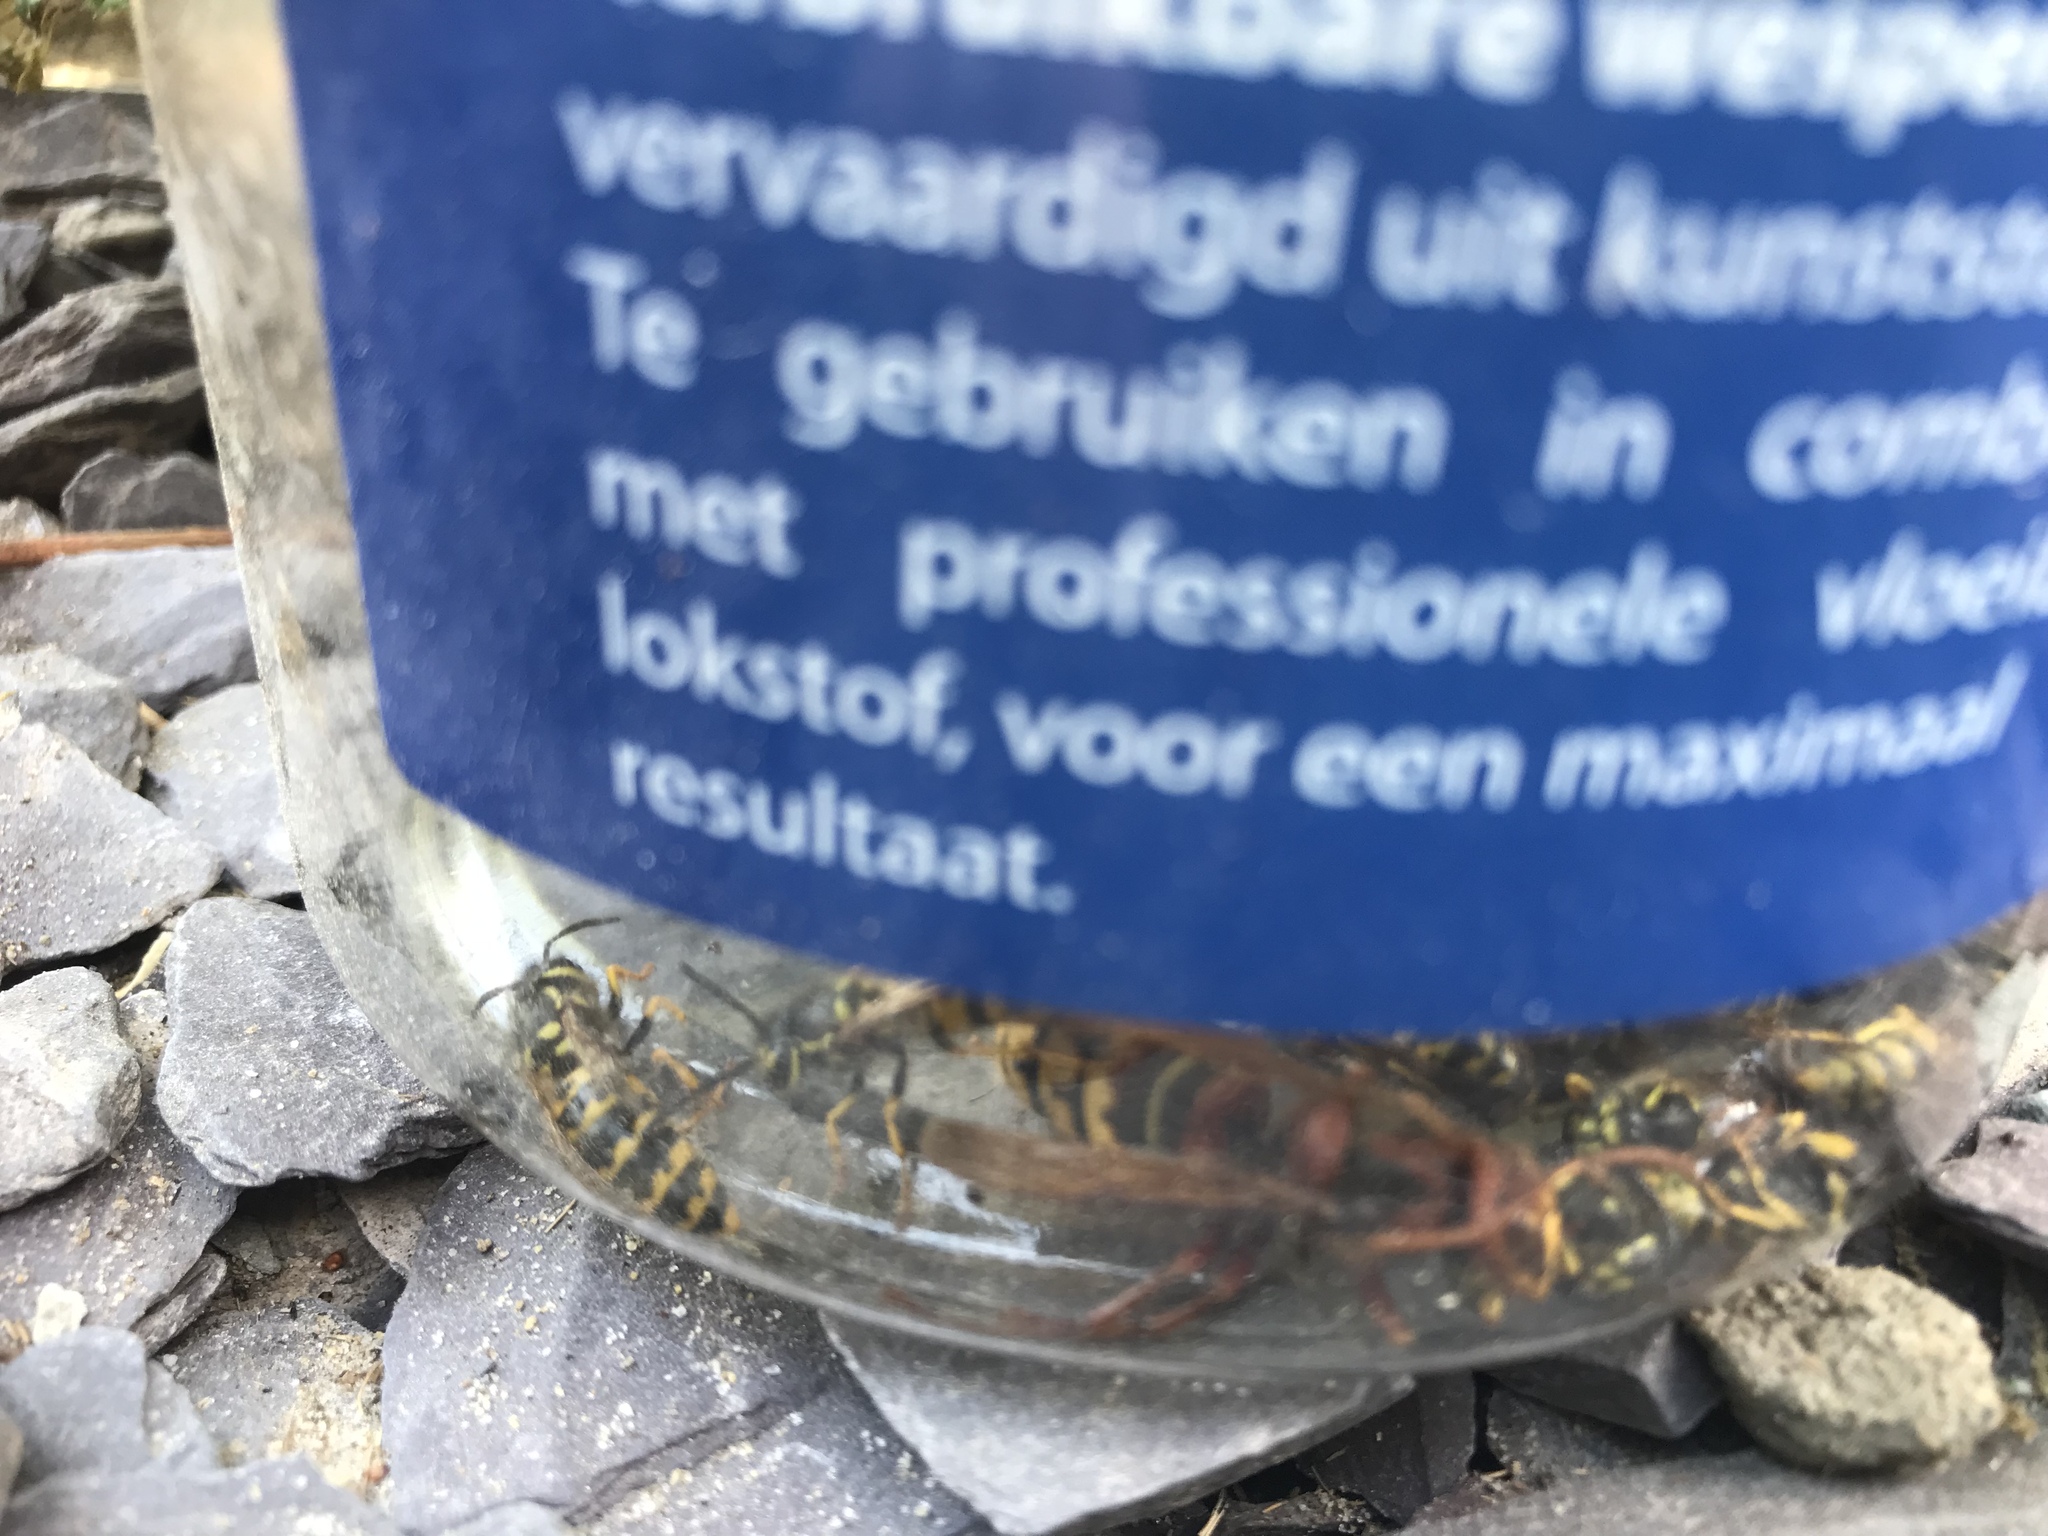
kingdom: Animalia
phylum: Arthropoda
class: Insecta
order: Hymenoptera
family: Vespidae
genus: Vespa
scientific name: Vespa crabro
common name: Hornet
